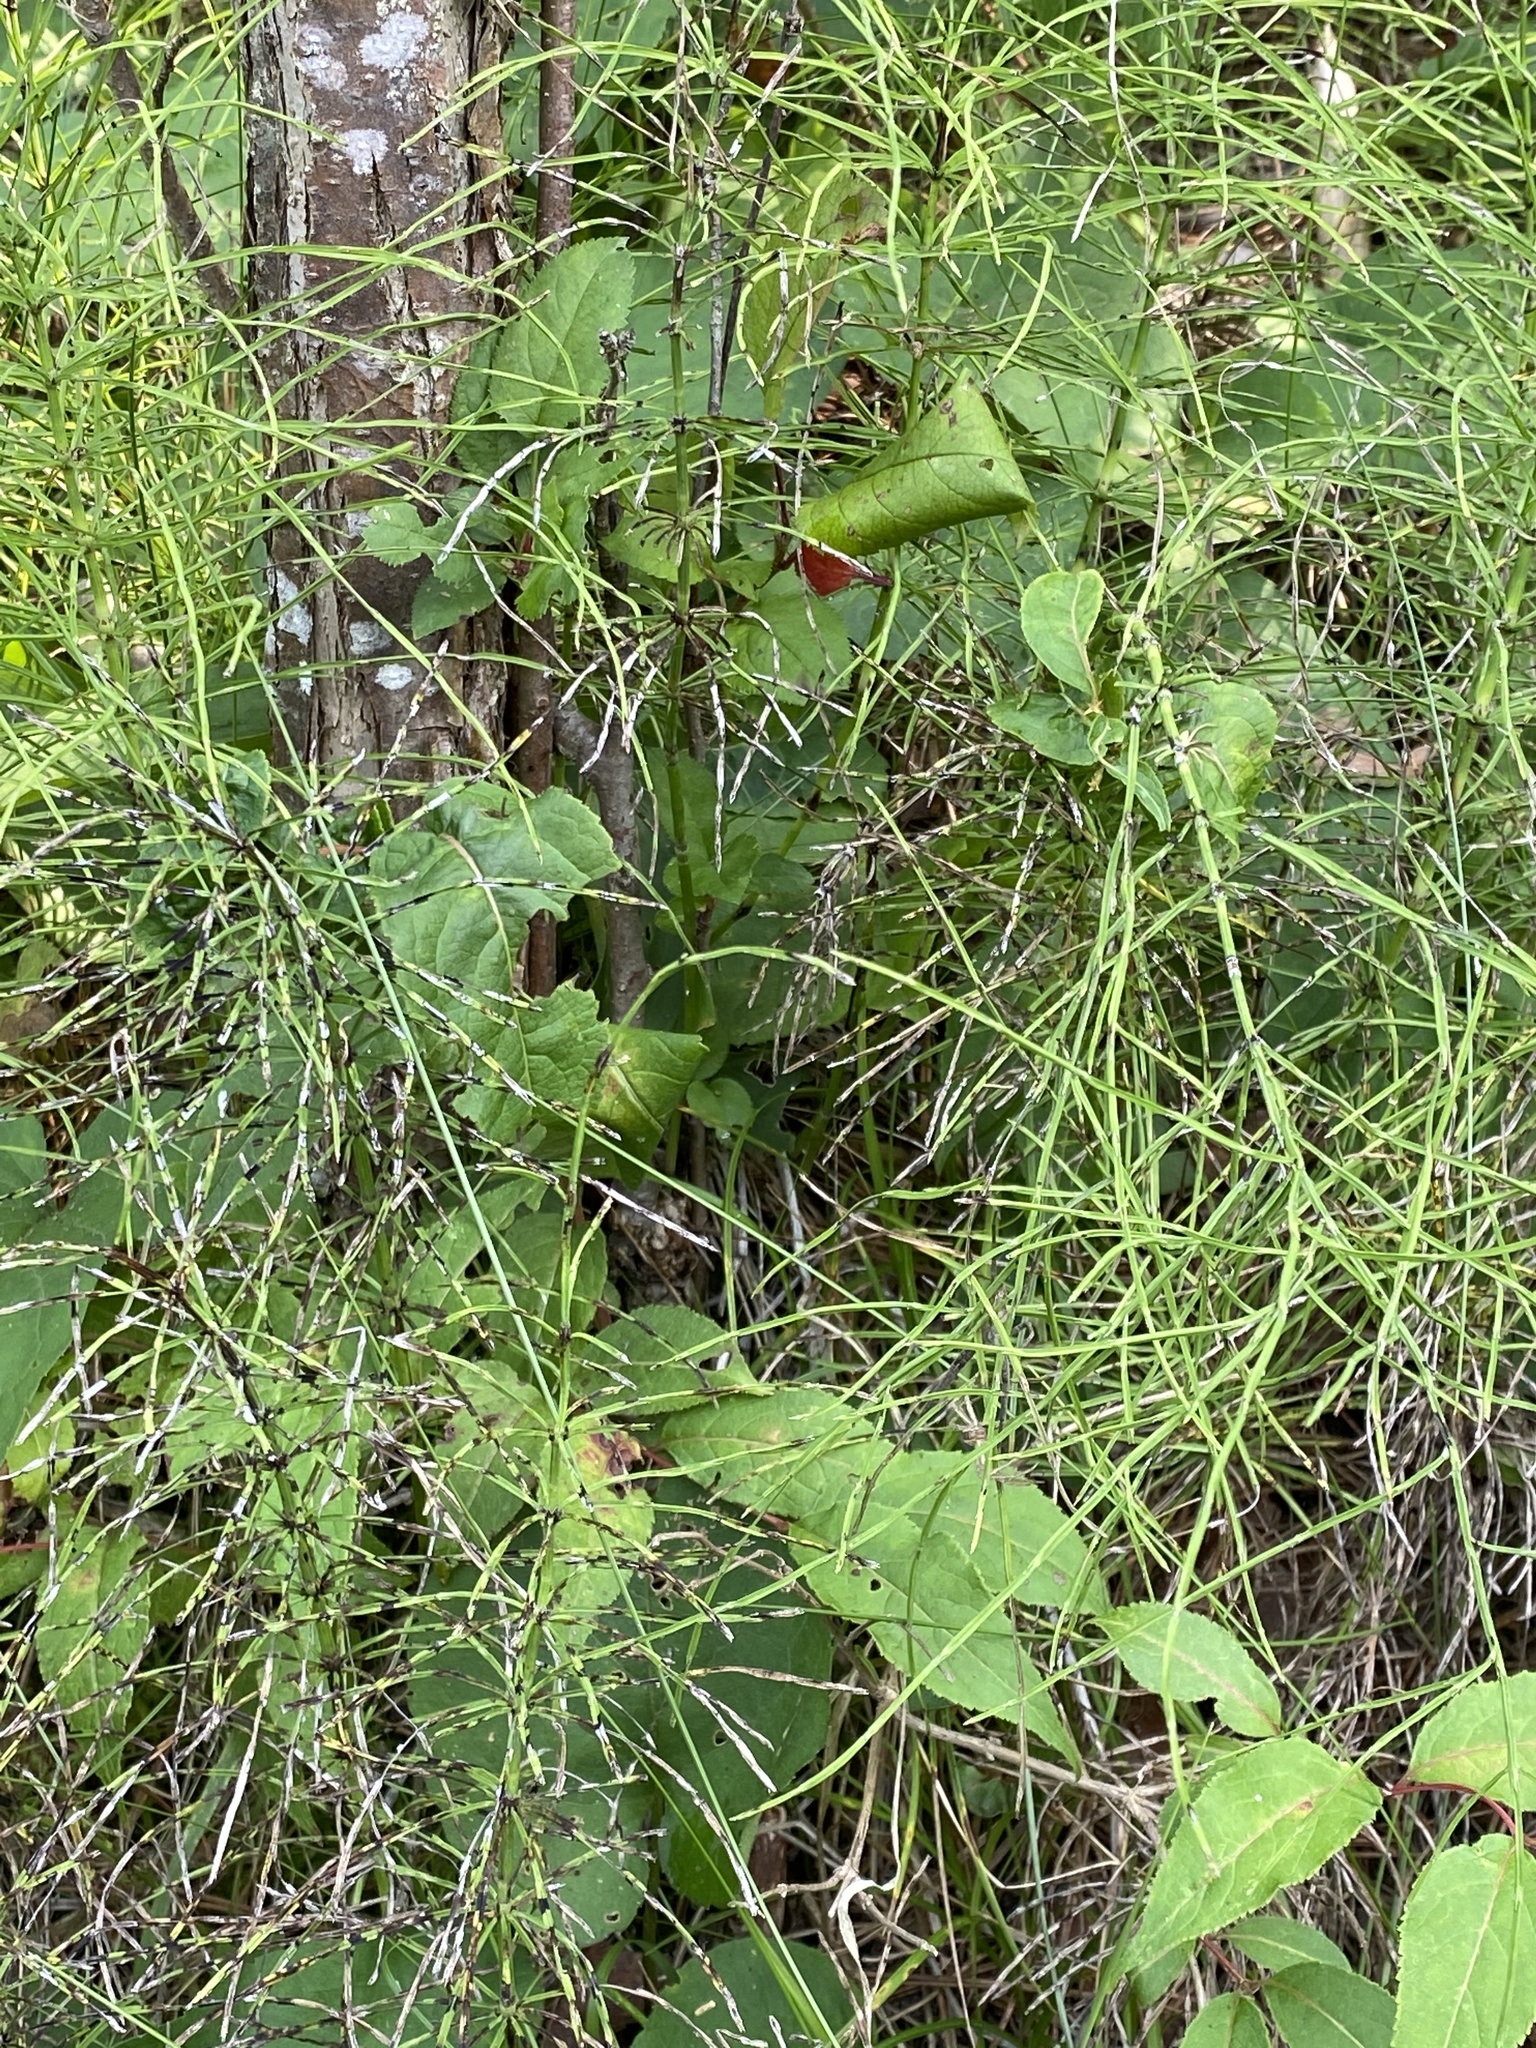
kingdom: Plantae
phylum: Tracheophyta
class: Polypodiopsida
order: Equisetales
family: Equisetaceae
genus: Equisetum
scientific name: Equisetum arvense
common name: Field horsetail
